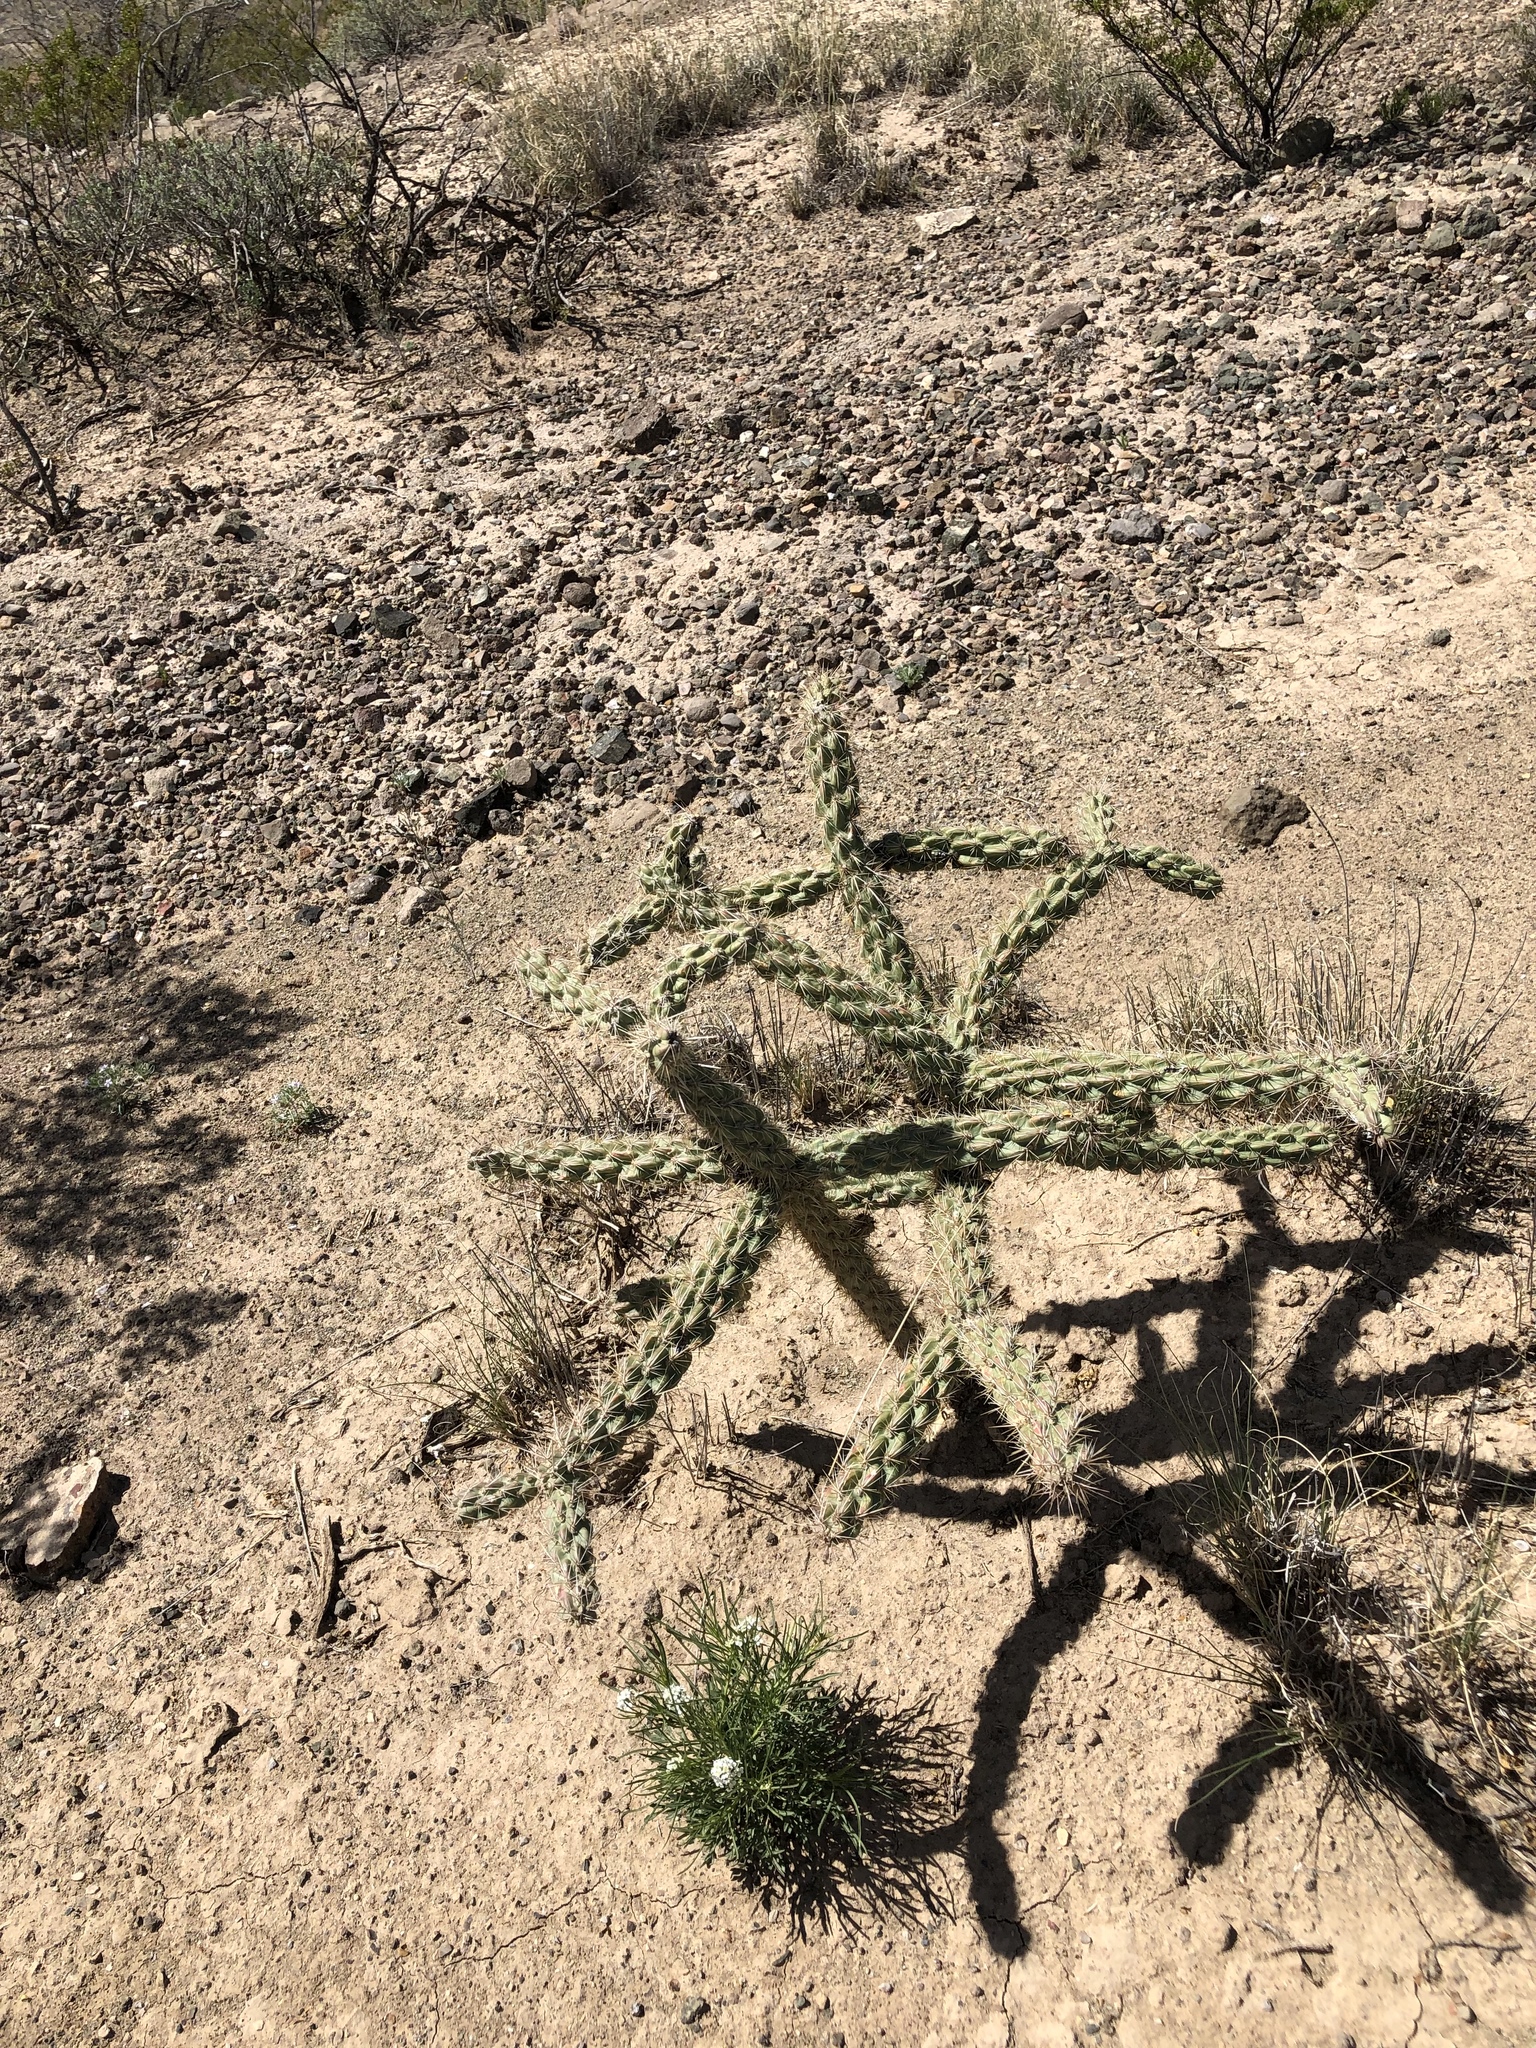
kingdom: Plantae
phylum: Tracheophyta
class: Magnoliopsida
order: Caryophyllales
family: Cactaceae
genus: Cylindropuntia
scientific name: Cylindropuntia imbricata
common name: Candelabrum cactus
